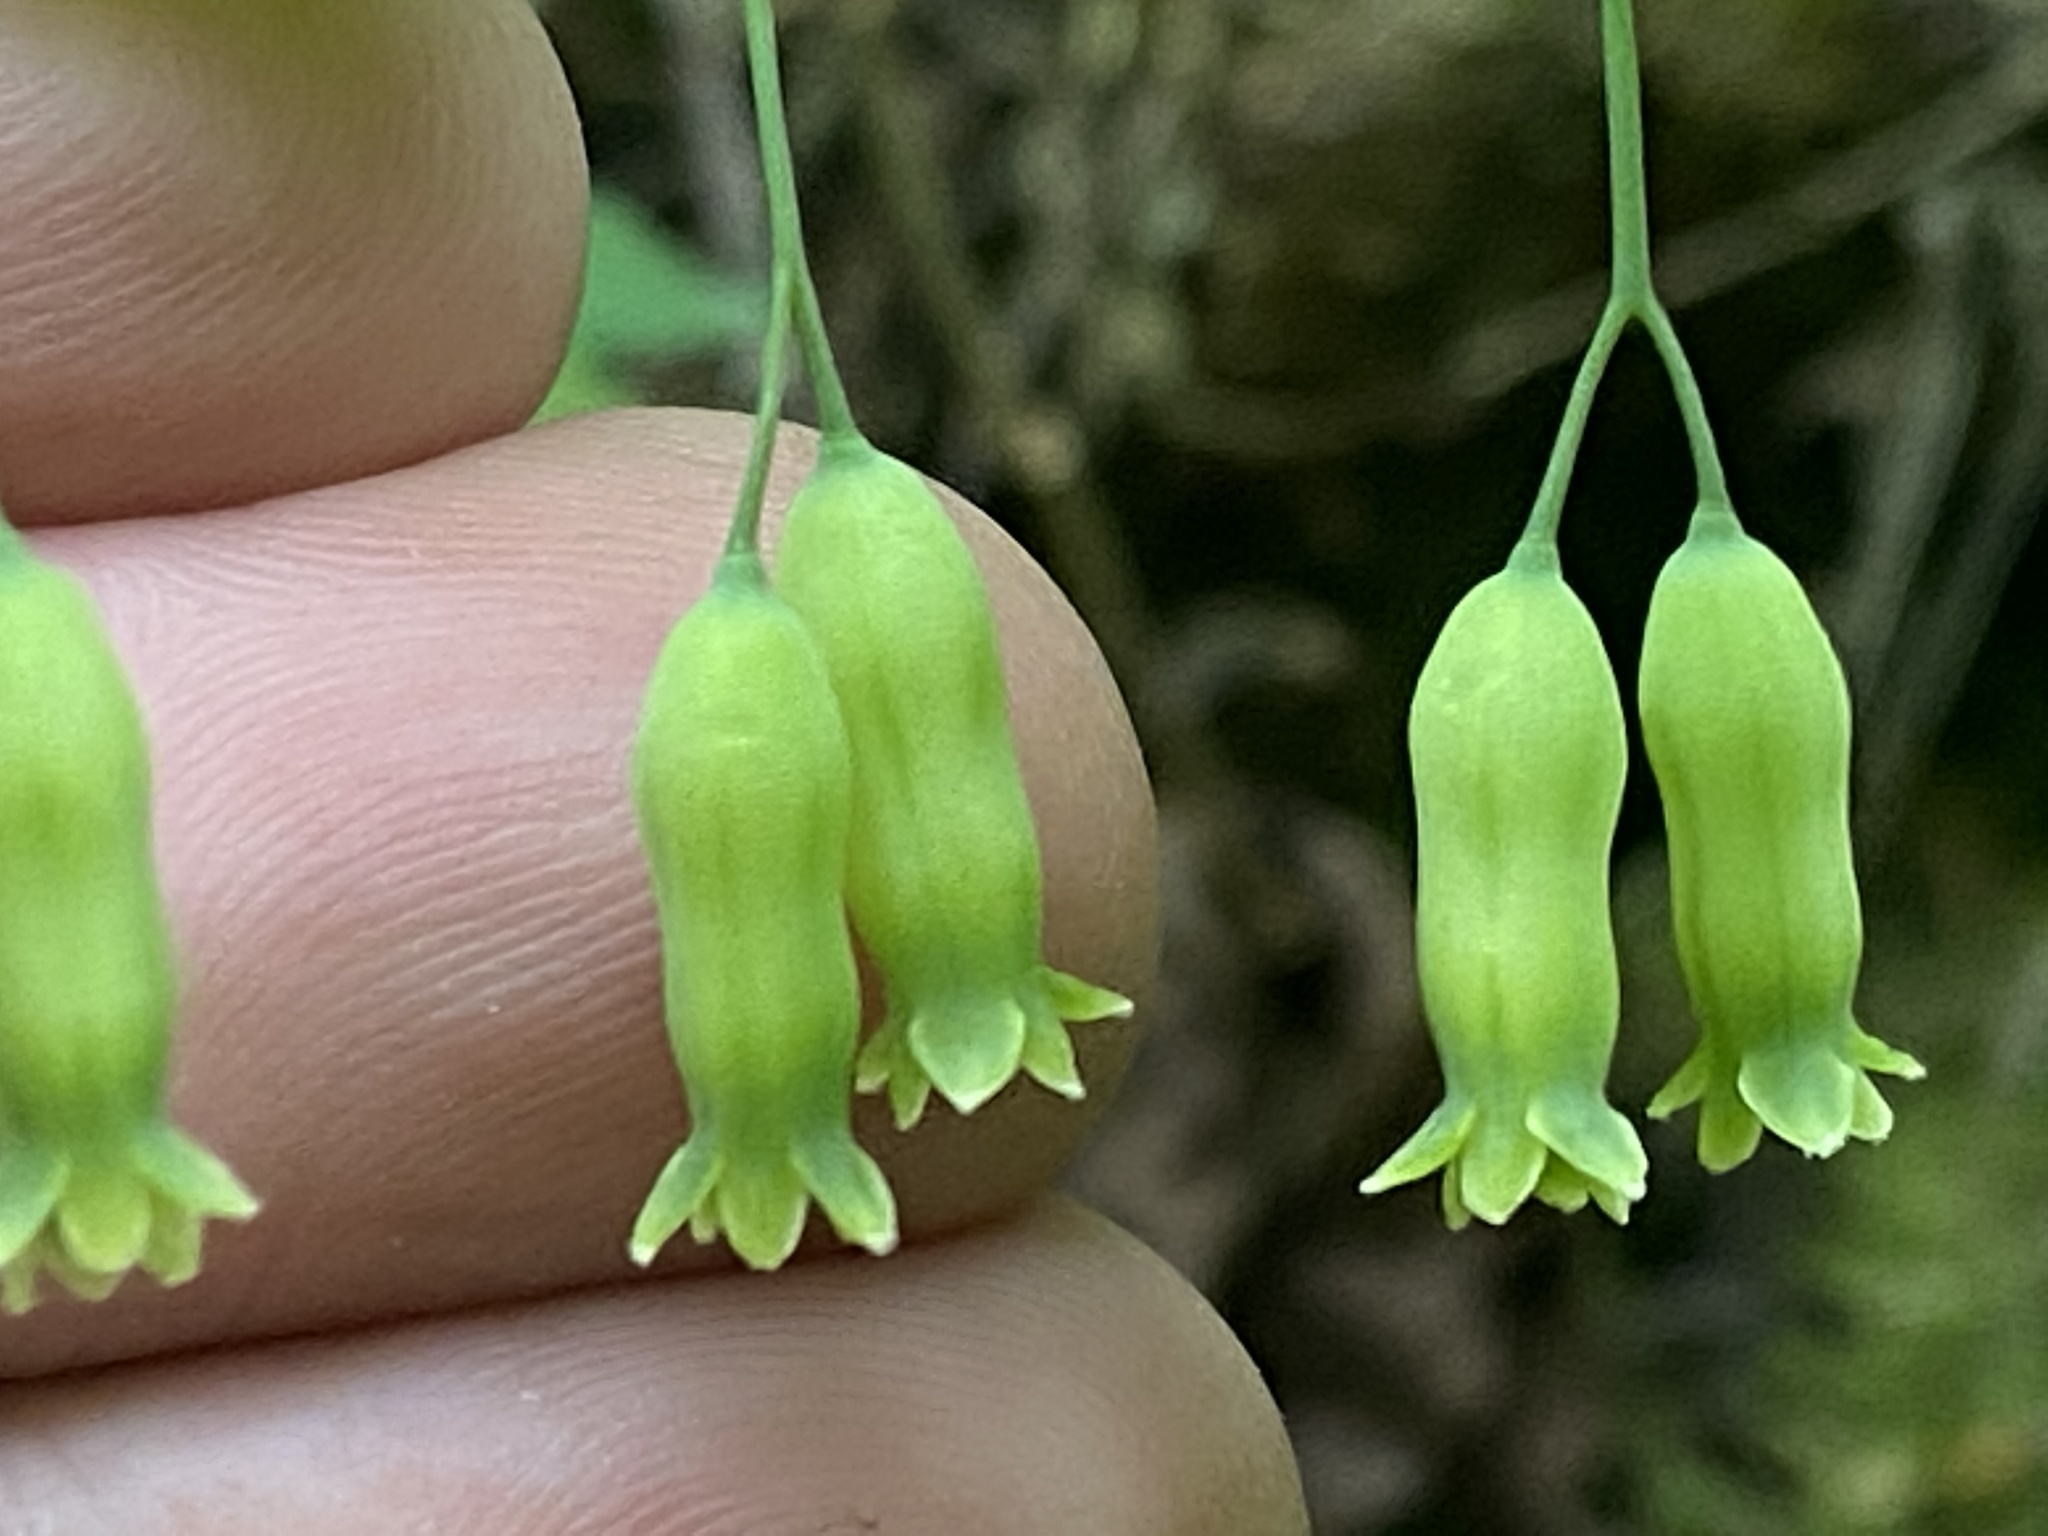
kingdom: Plantae
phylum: Tracheophyta
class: Liliopsida
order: Asparagales
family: Asparagaceae
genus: Polygonatum
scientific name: Polygonatum pubescens
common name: Downy solomon's seal
